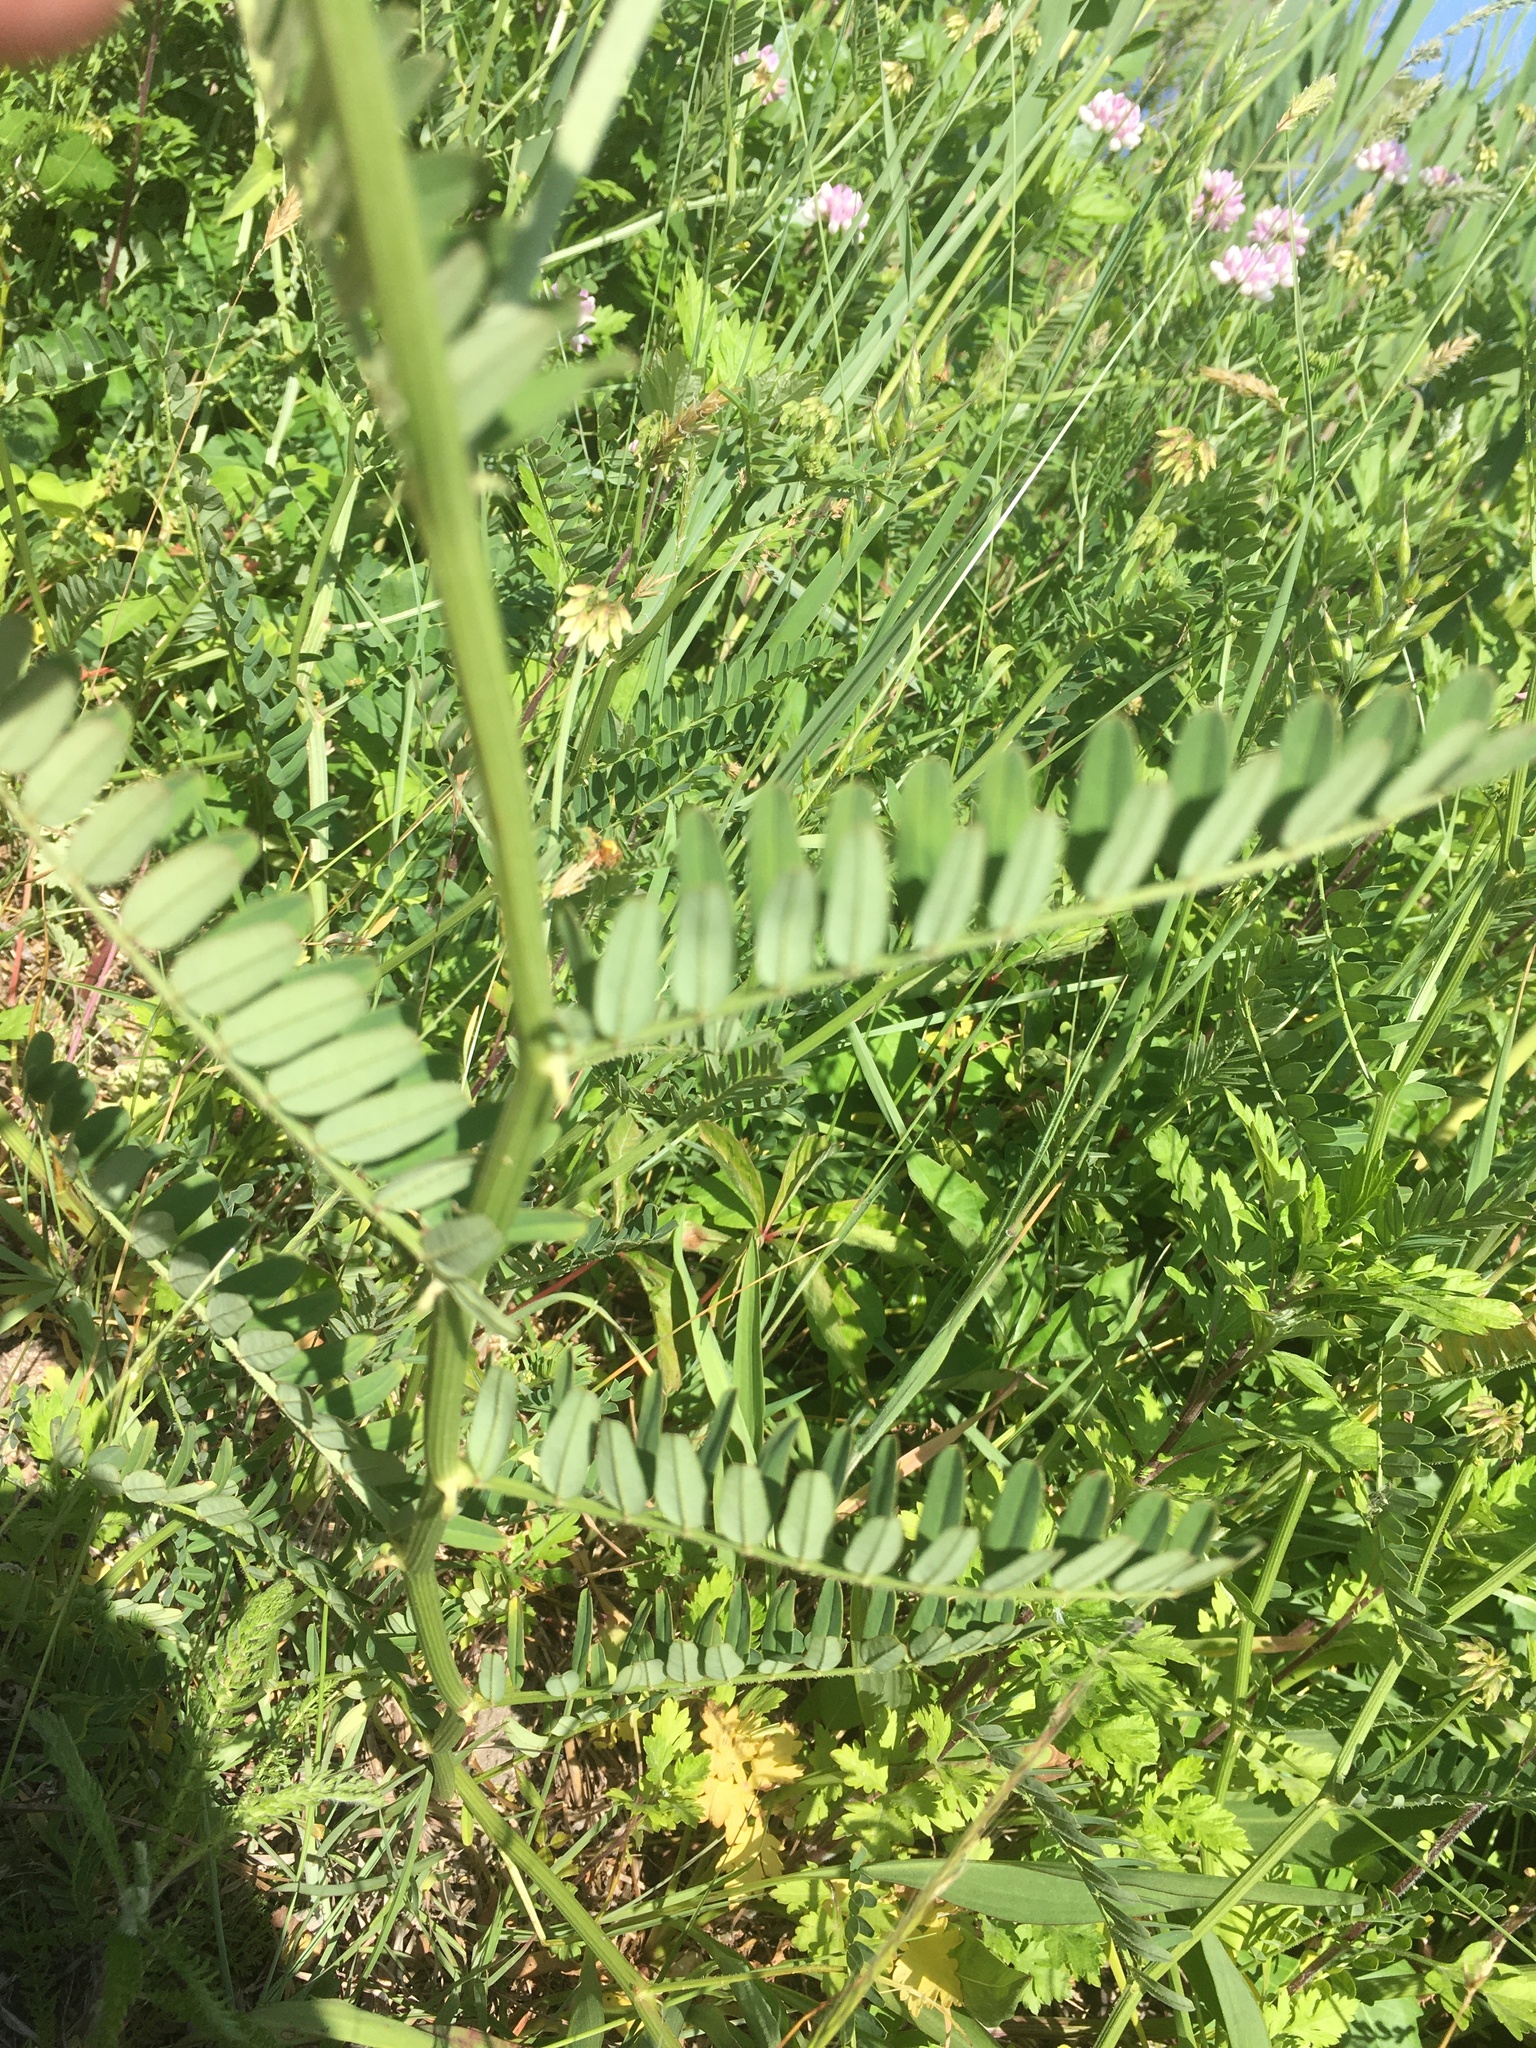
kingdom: Plantae
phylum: Tracheophyta
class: Magnoliopsida
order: Fabales
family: Fabaceae
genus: Coronilla
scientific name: Coronilla varia
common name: Crownvetch
